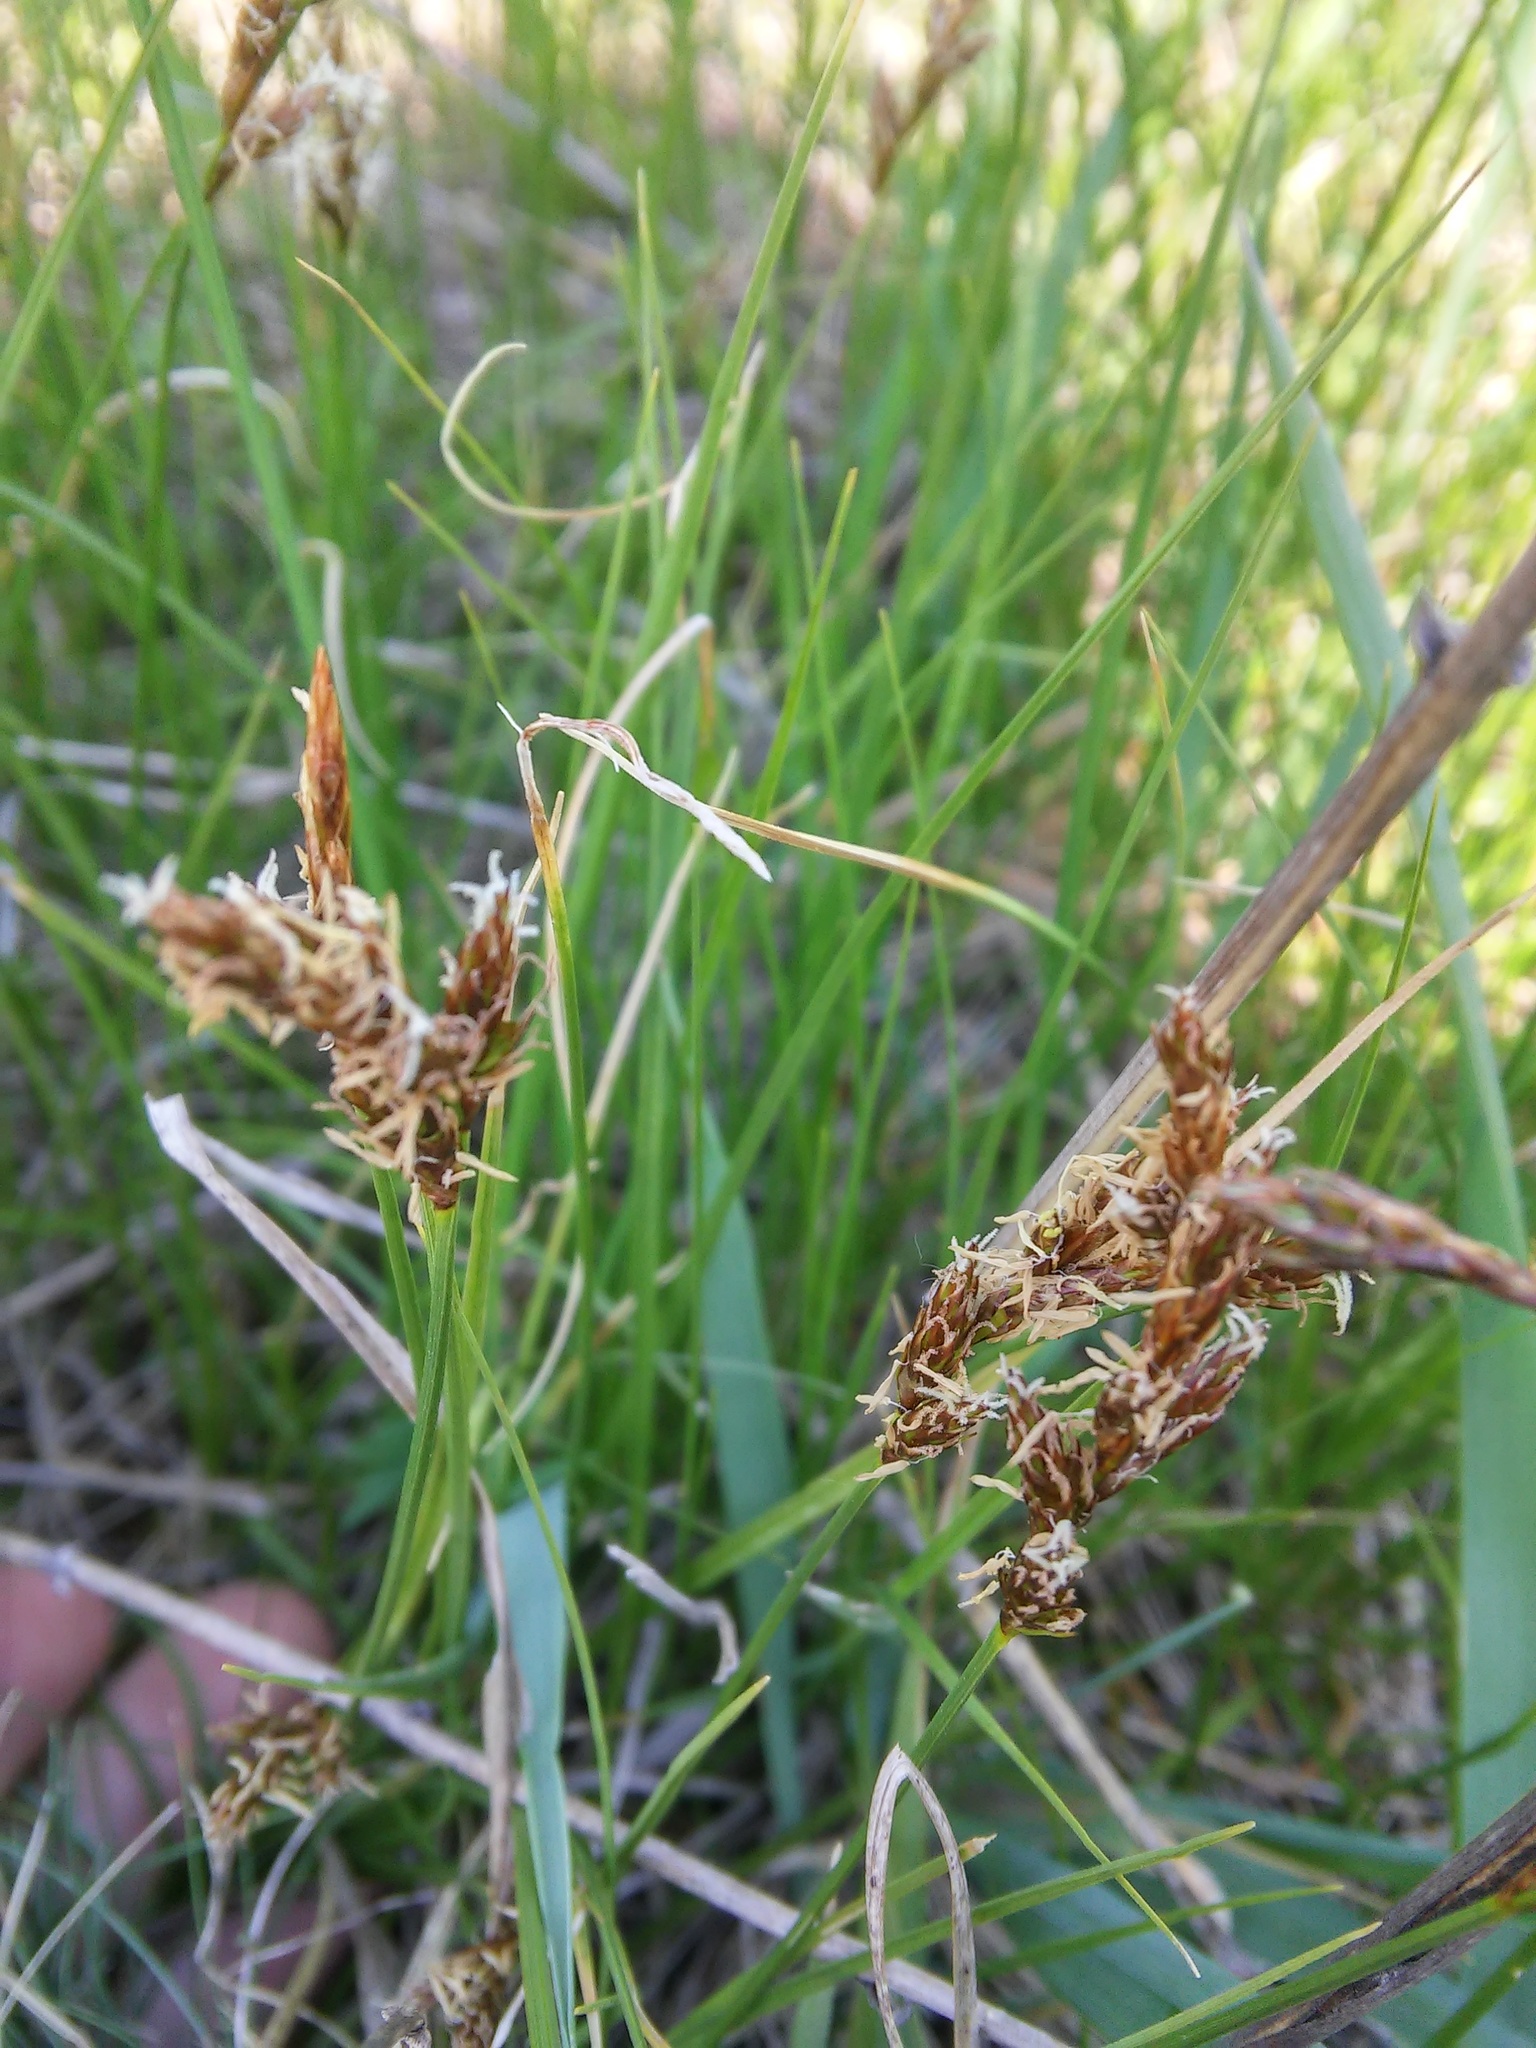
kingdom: Plantae
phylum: Tracheophyta
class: Liliopsida
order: Poales
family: Cyperaceae
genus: Carex
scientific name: Carex praecox
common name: Early sedge
